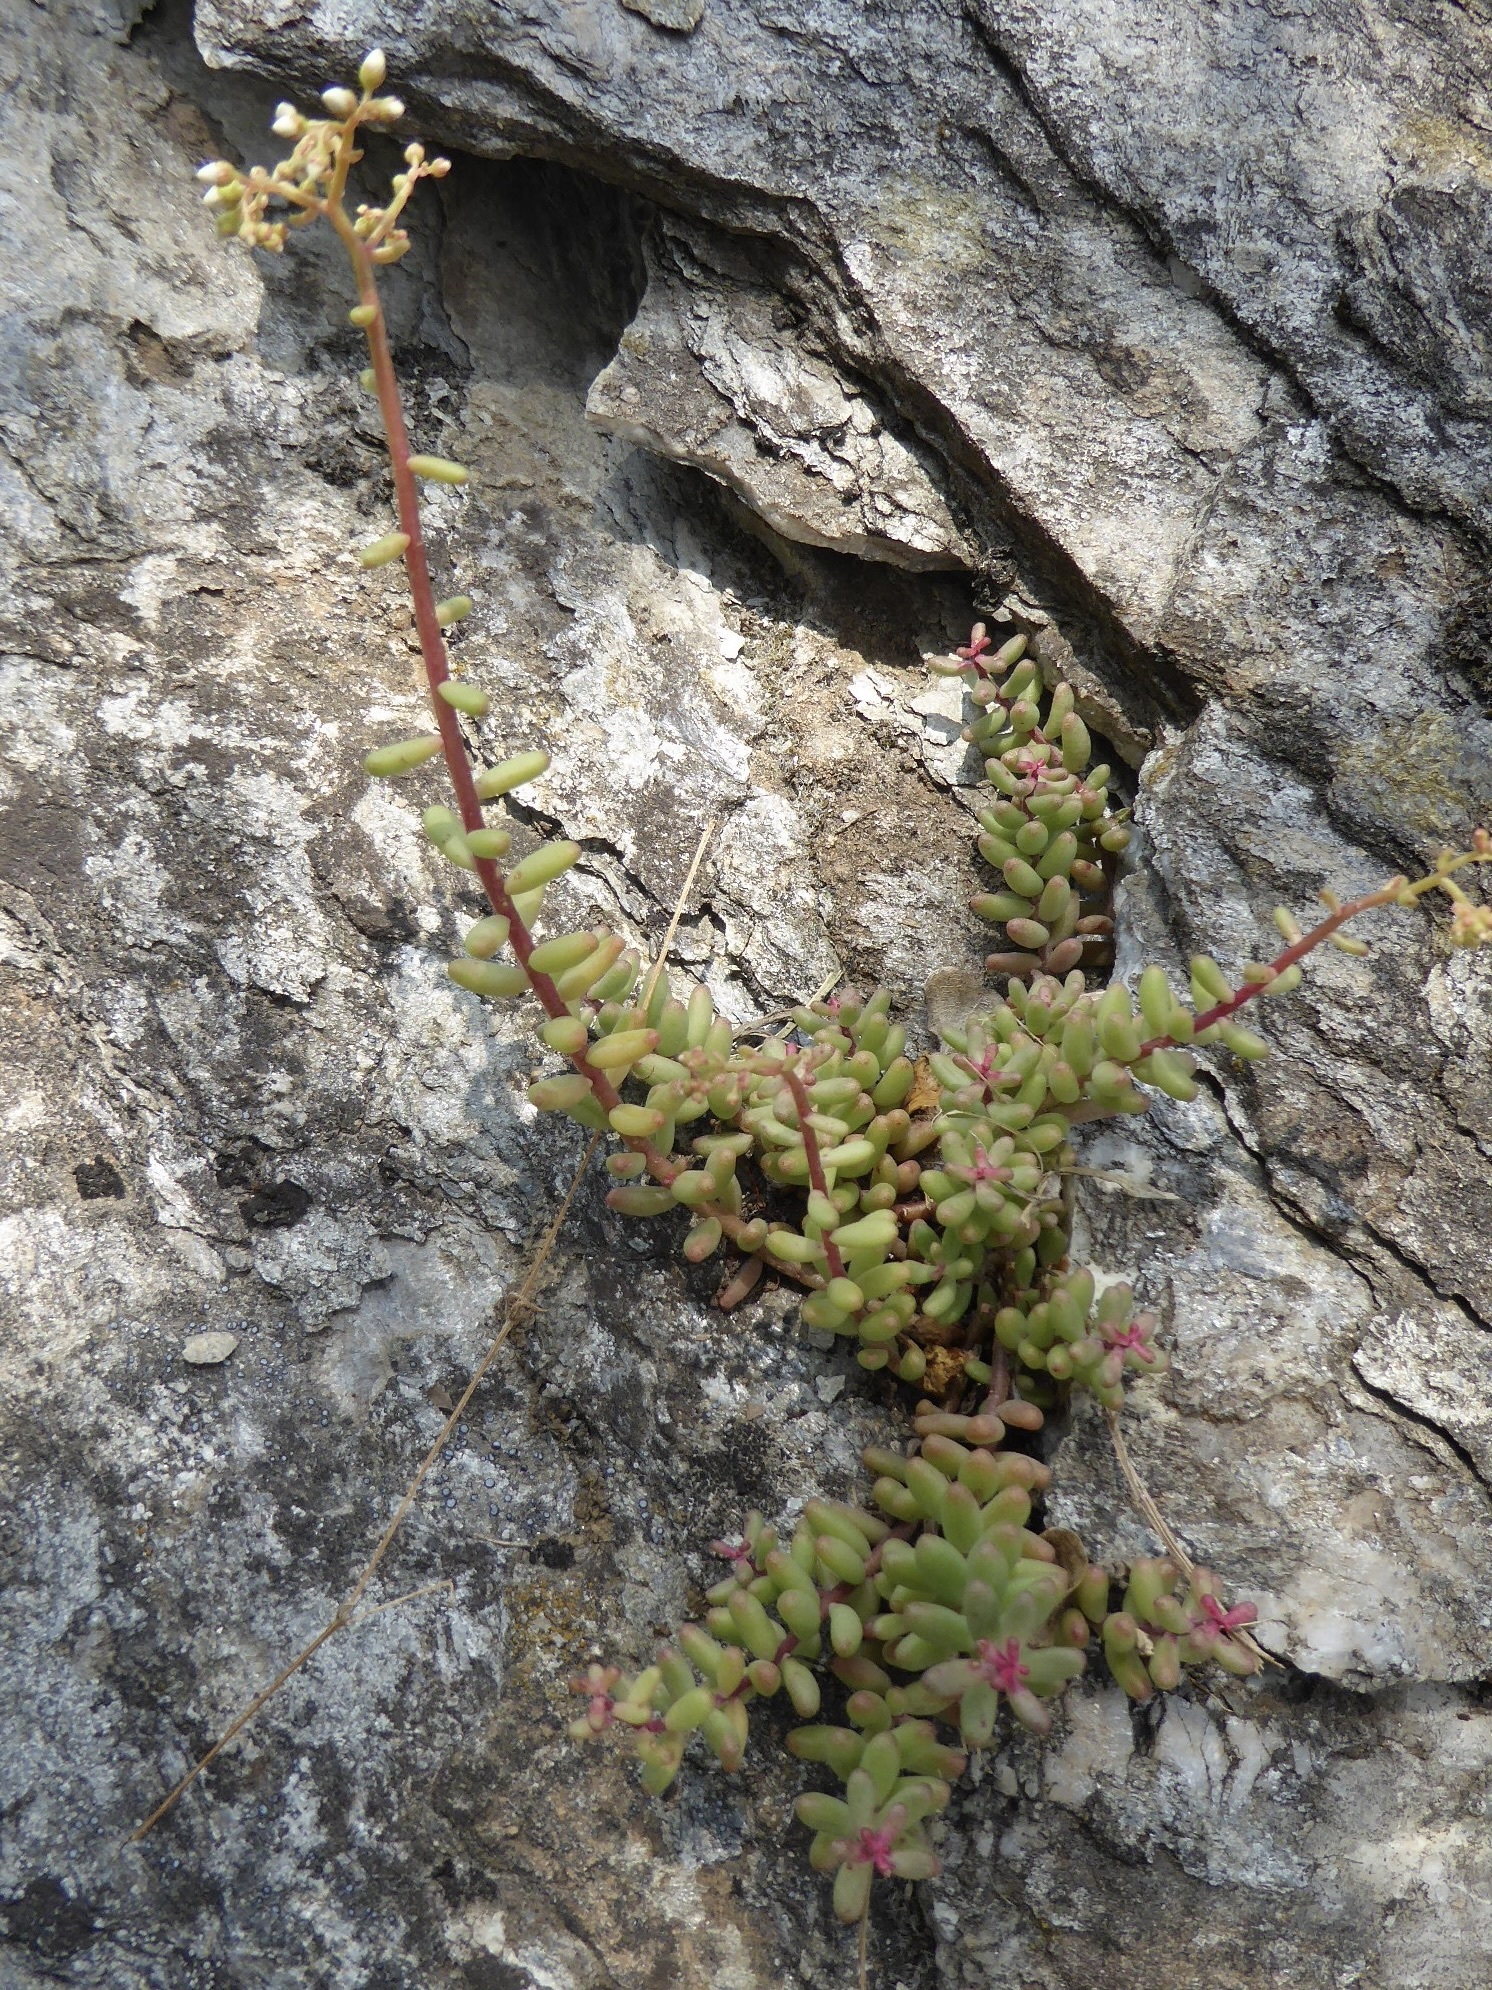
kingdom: Plantae
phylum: Tracheophyta
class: Magnoliopsida
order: Saxifragales
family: Crassulaceae
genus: Sedum
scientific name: Sedum album
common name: White stonecrop
